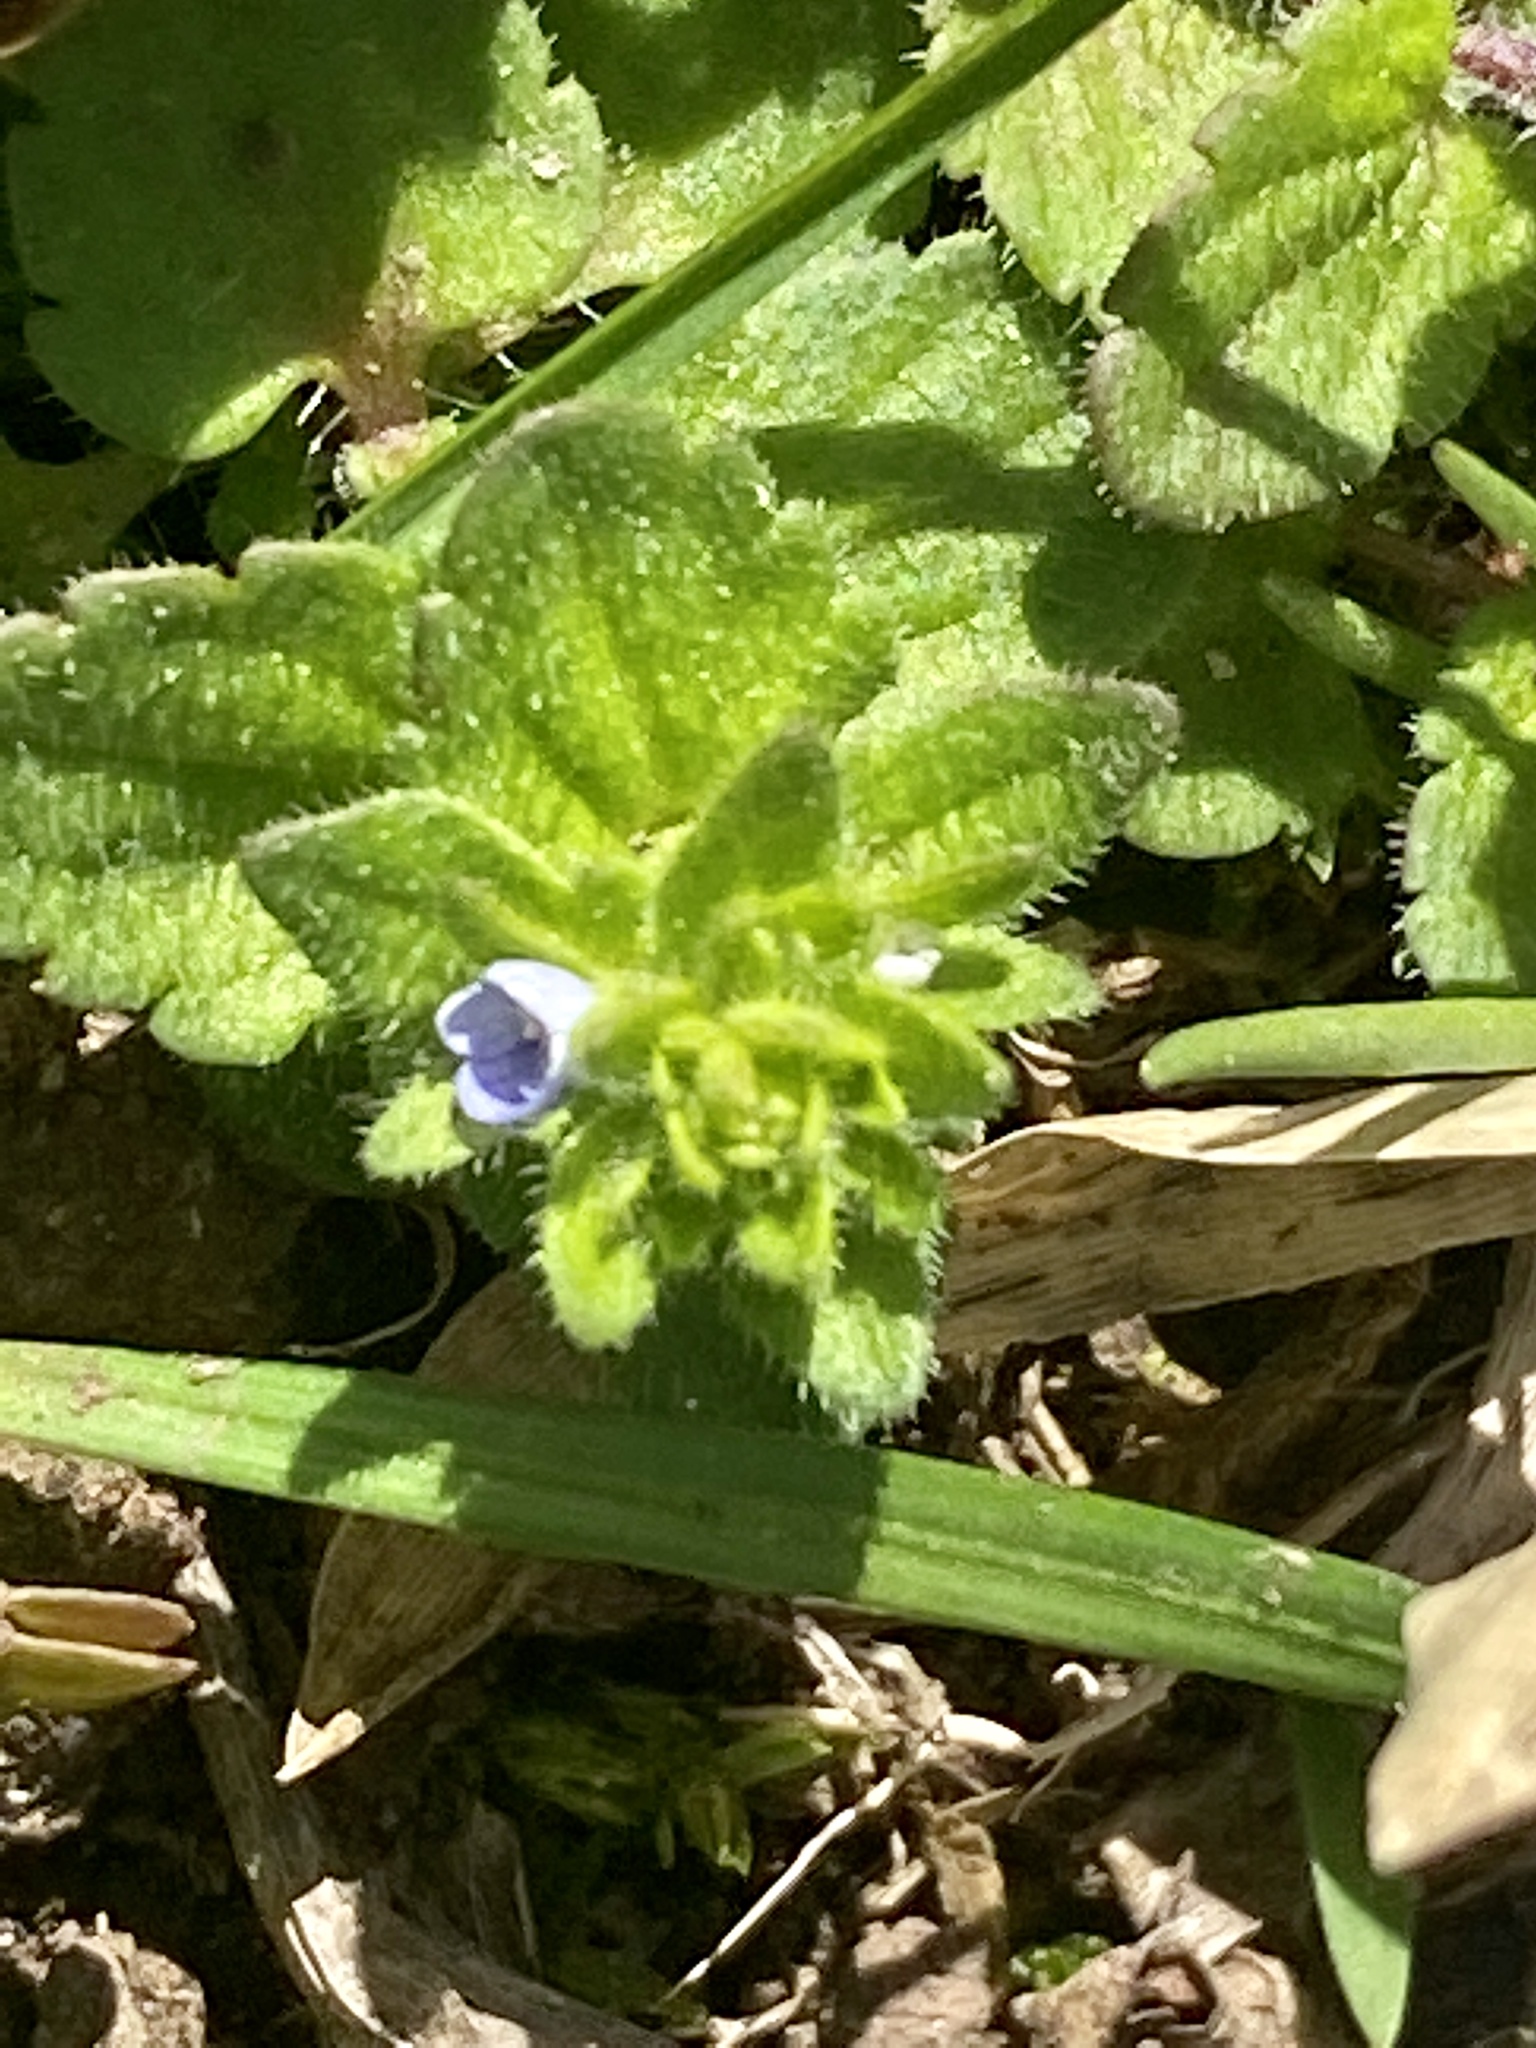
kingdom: Plantae
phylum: Tracheophyta
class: Magnoliopsida
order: Lamiales
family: Plantaginaceae
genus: Veronica
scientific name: Veronica arvensis
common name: Corn speedwell
